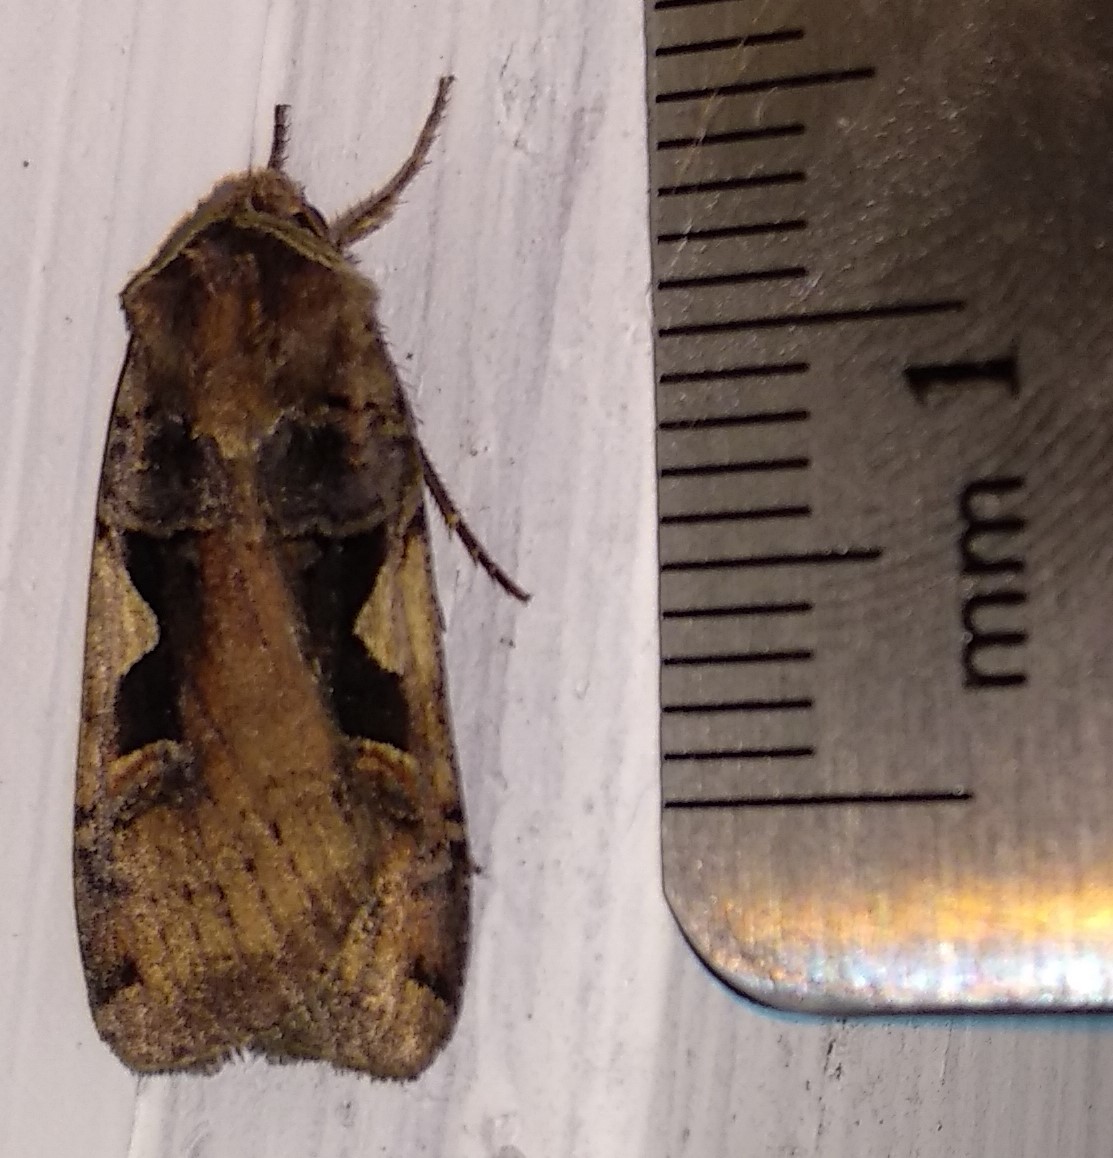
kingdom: Animalia
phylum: Arthropoda
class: Insecta
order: Lepidoptera
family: Noctuidae
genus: Xestia
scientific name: Xestia
